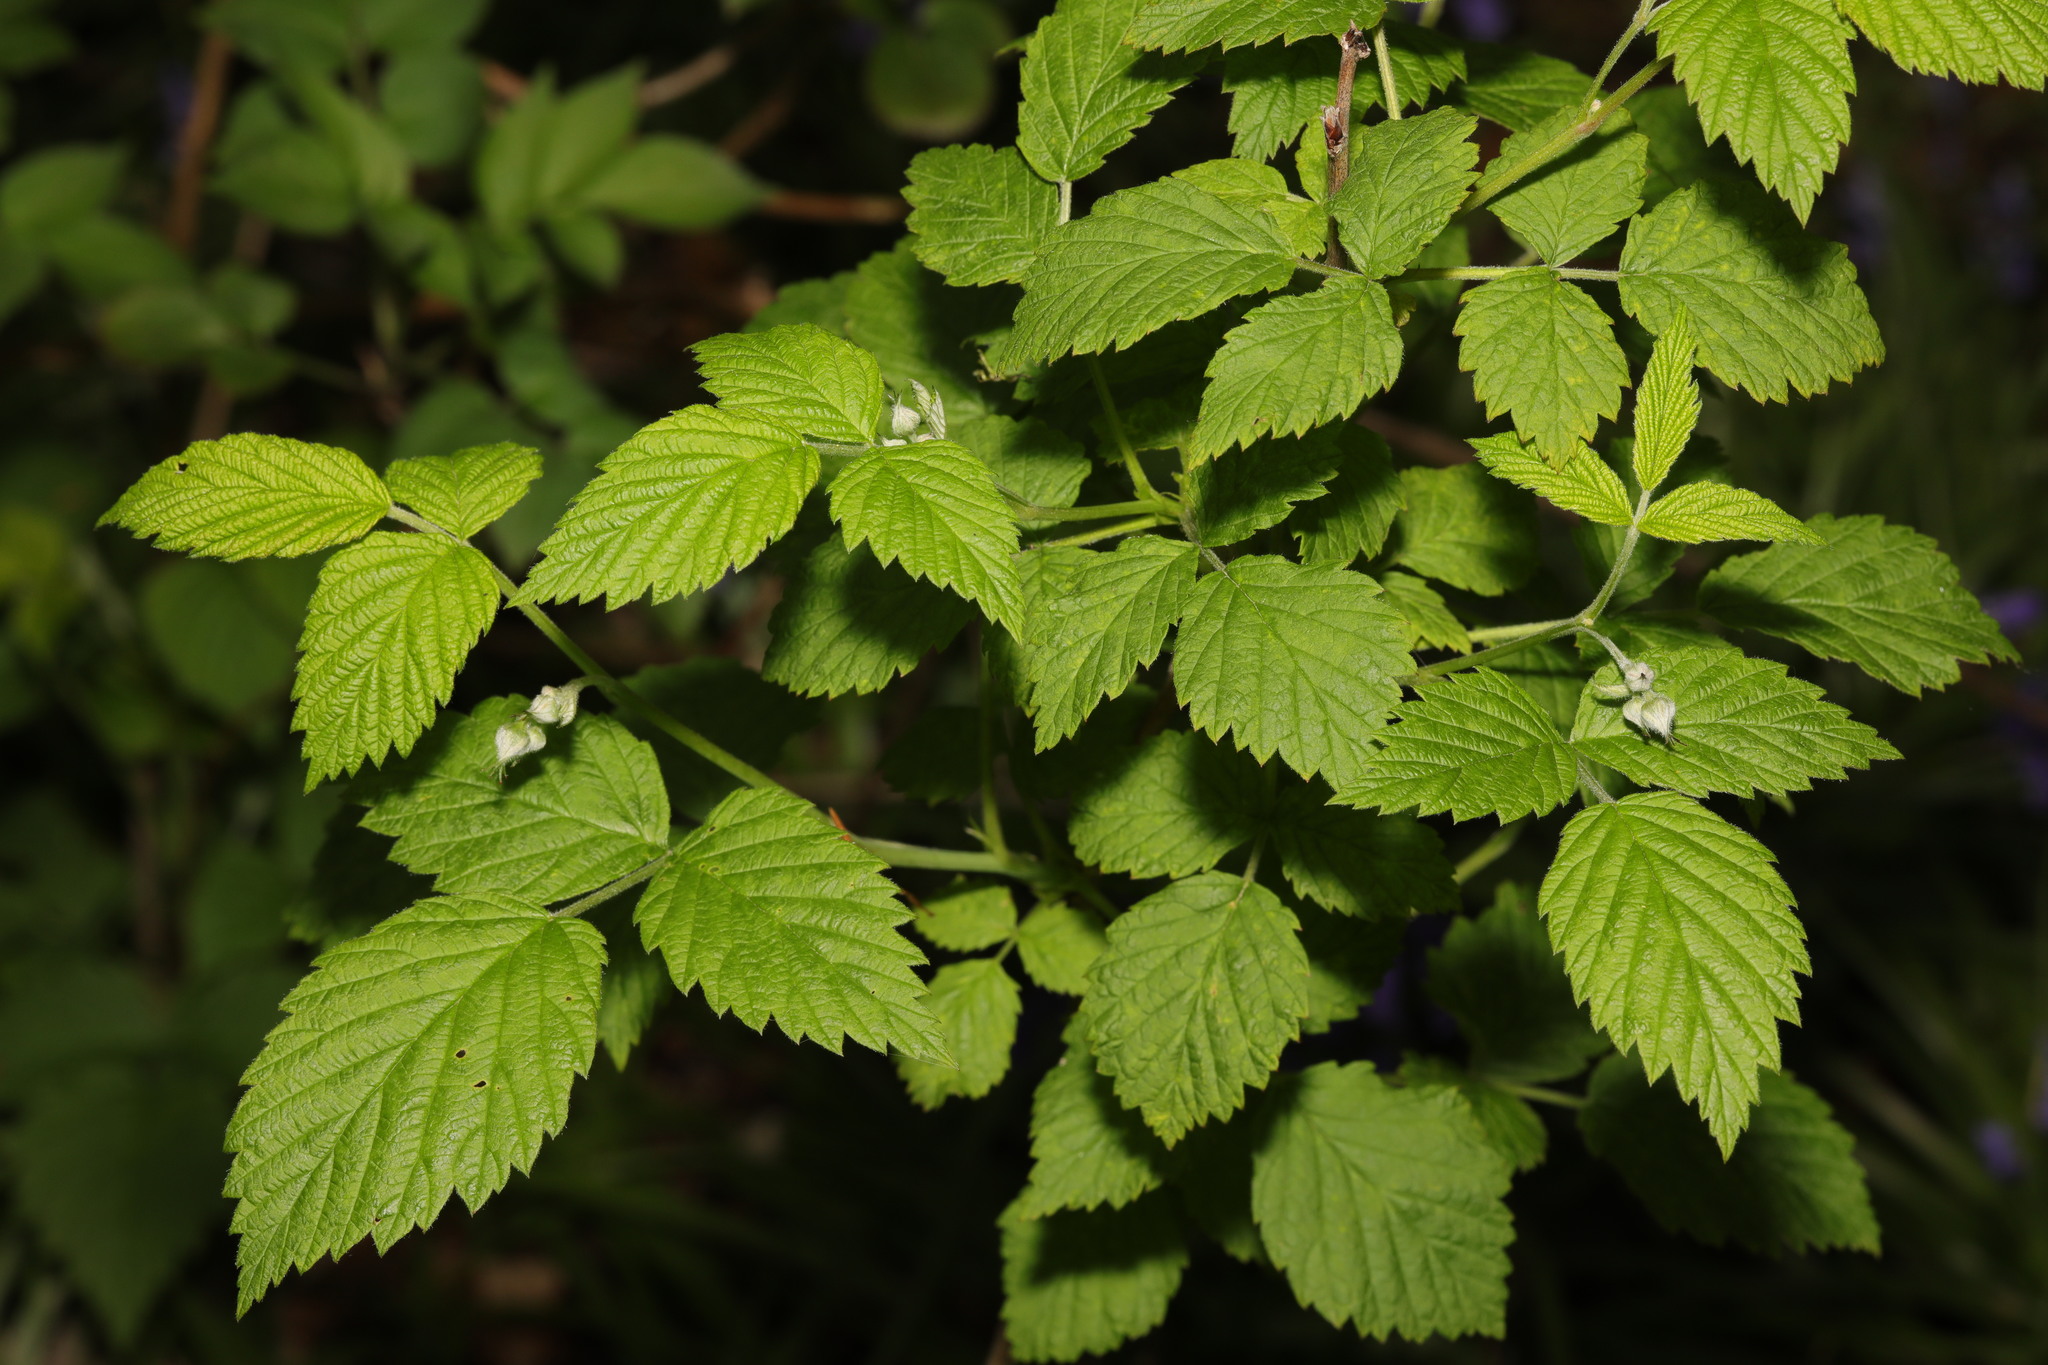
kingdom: Plantae
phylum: Tracheophyta
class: Magnoliopsida
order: Rosales
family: Rosaceae
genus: Rubus
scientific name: Rubus idaeus
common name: Raspberry
